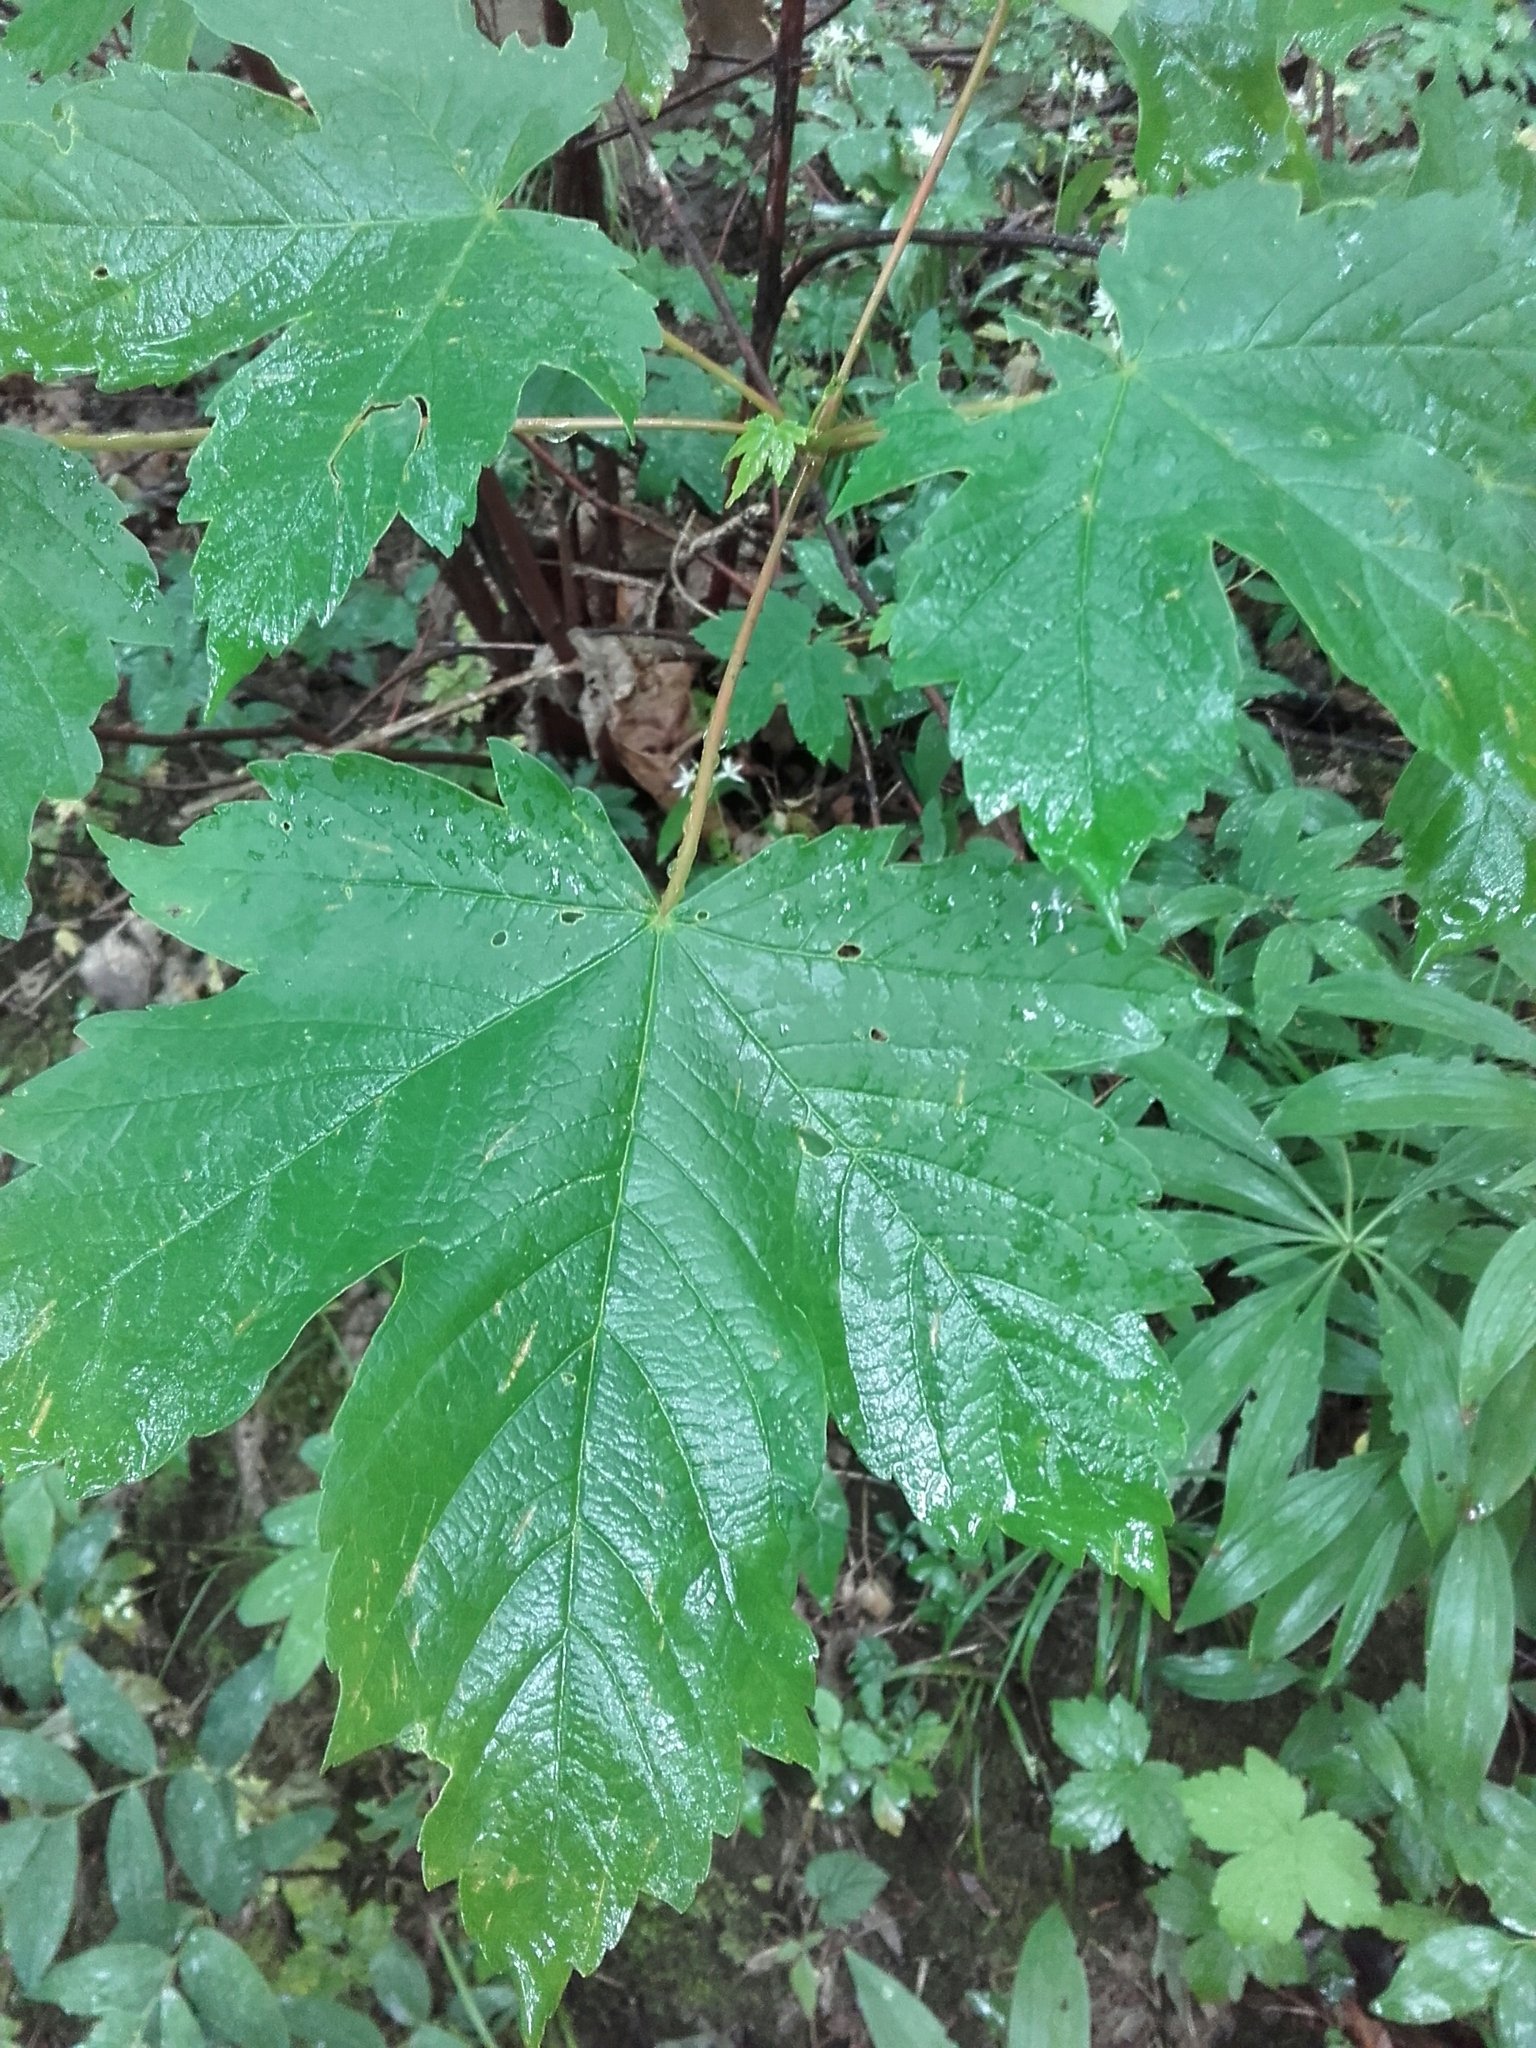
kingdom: Plantae
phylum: Tracheophyta
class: Magnoliopsida
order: Sapindales
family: Sapindaceae
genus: Acer
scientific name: Acer pseudoplatanus
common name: Sycamore
